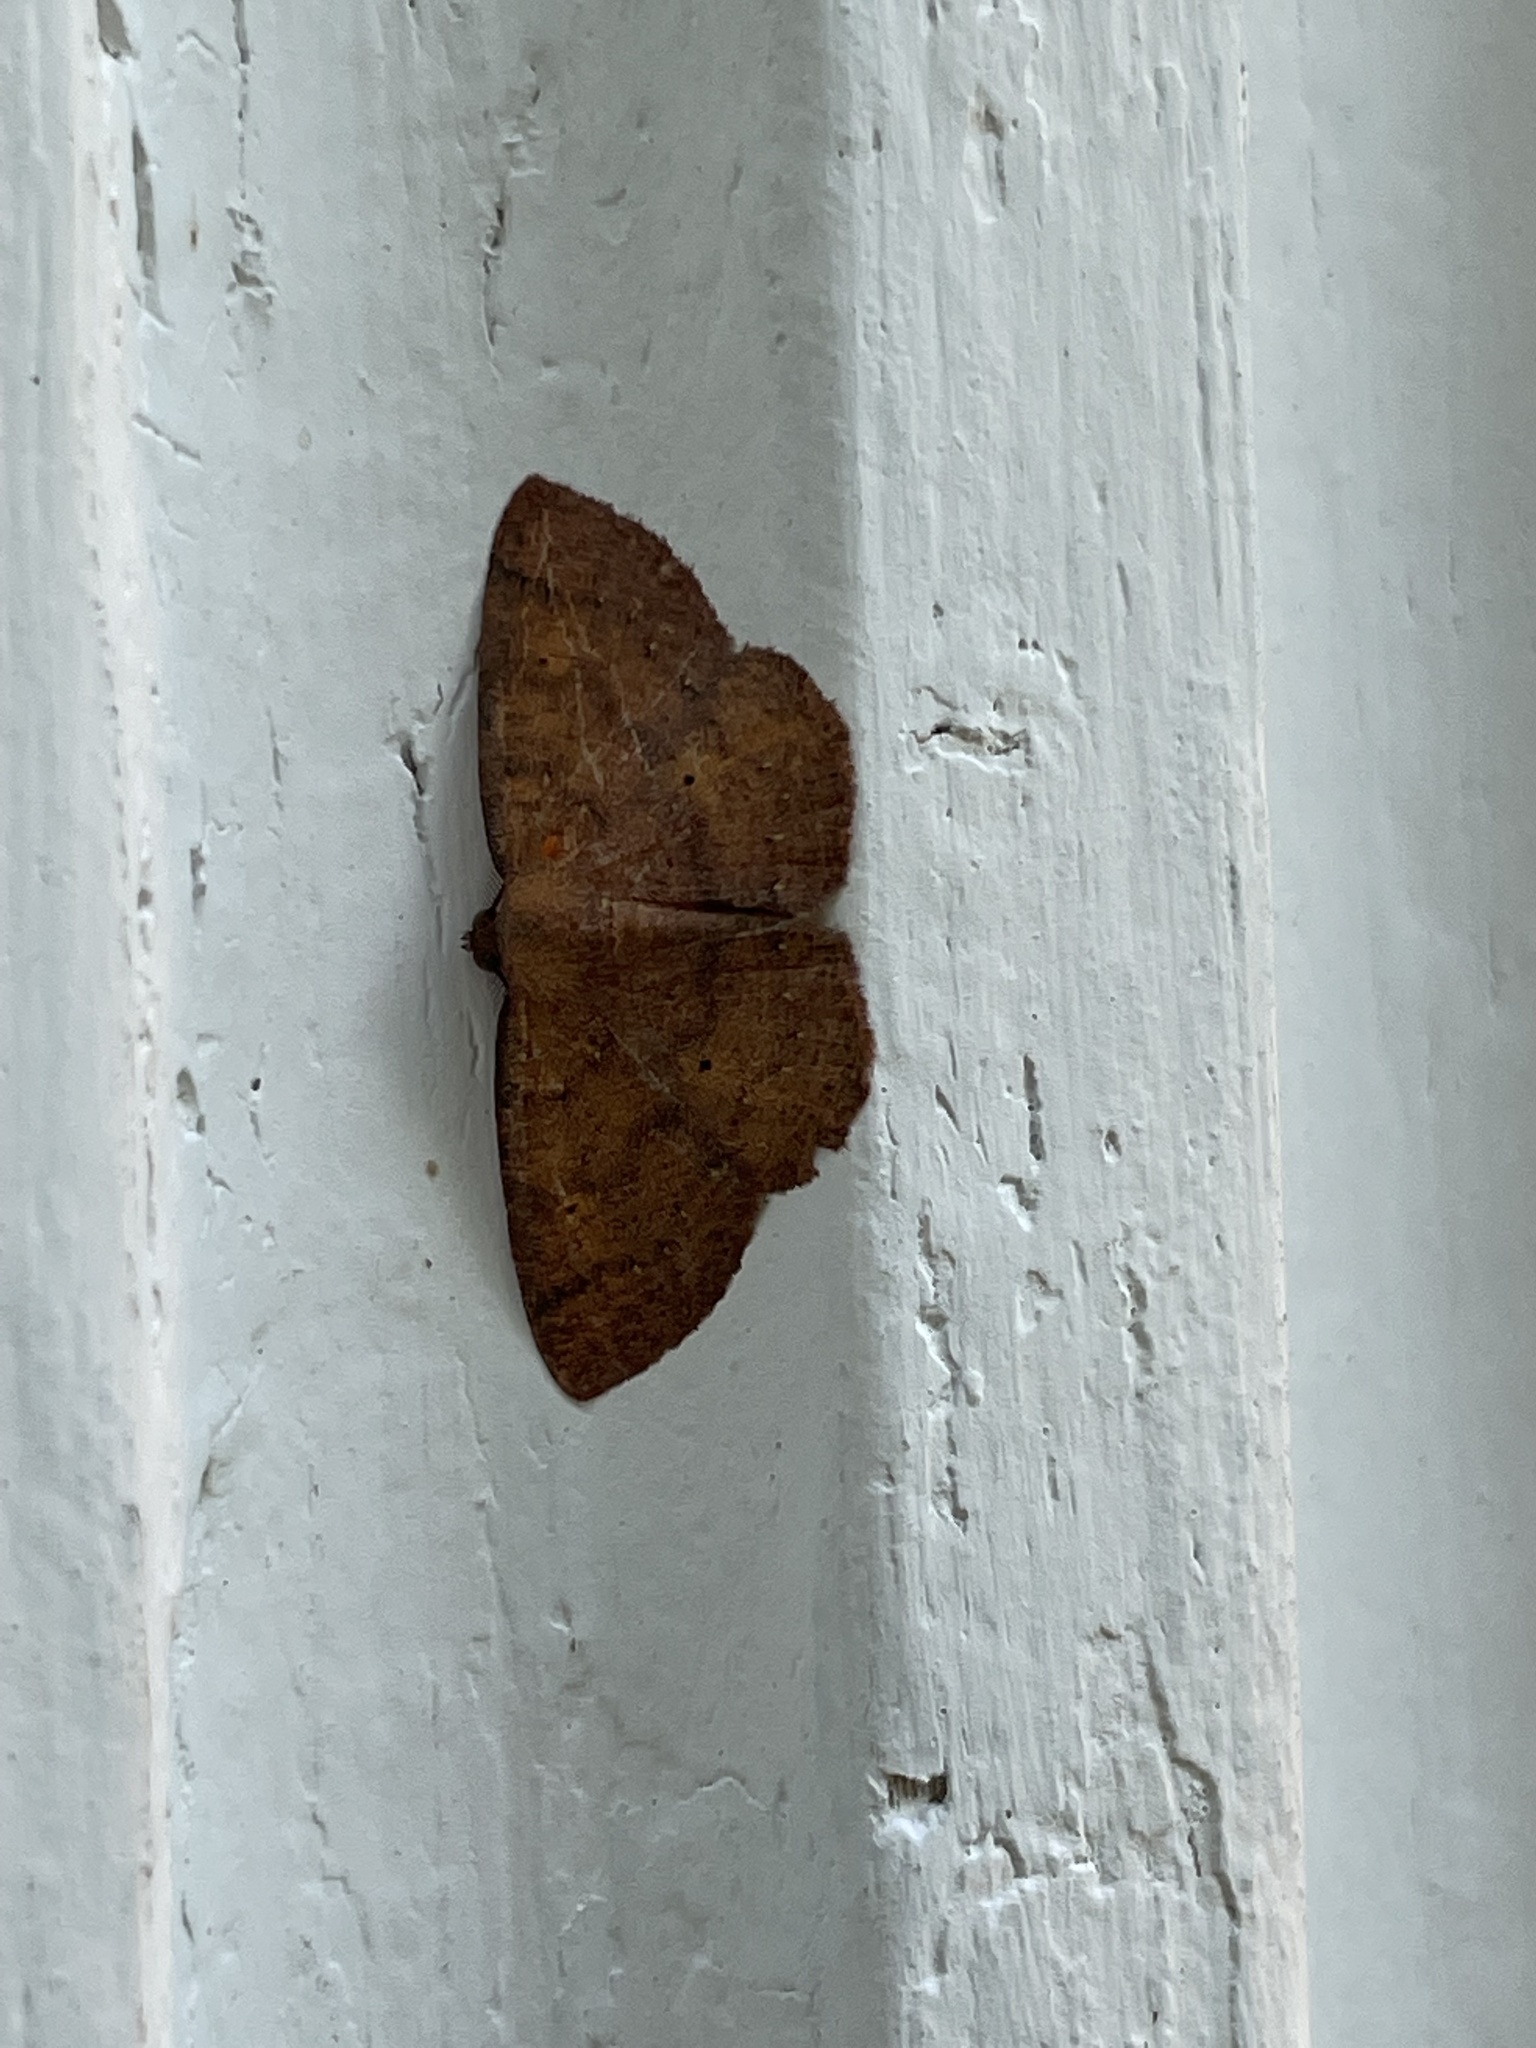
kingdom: Animalia
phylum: Arthropoda
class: Insecta
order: Lepidoptera
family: Geometridae
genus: Ilexia
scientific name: Ilexia intractata
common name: Black-dotted ruddy moth
